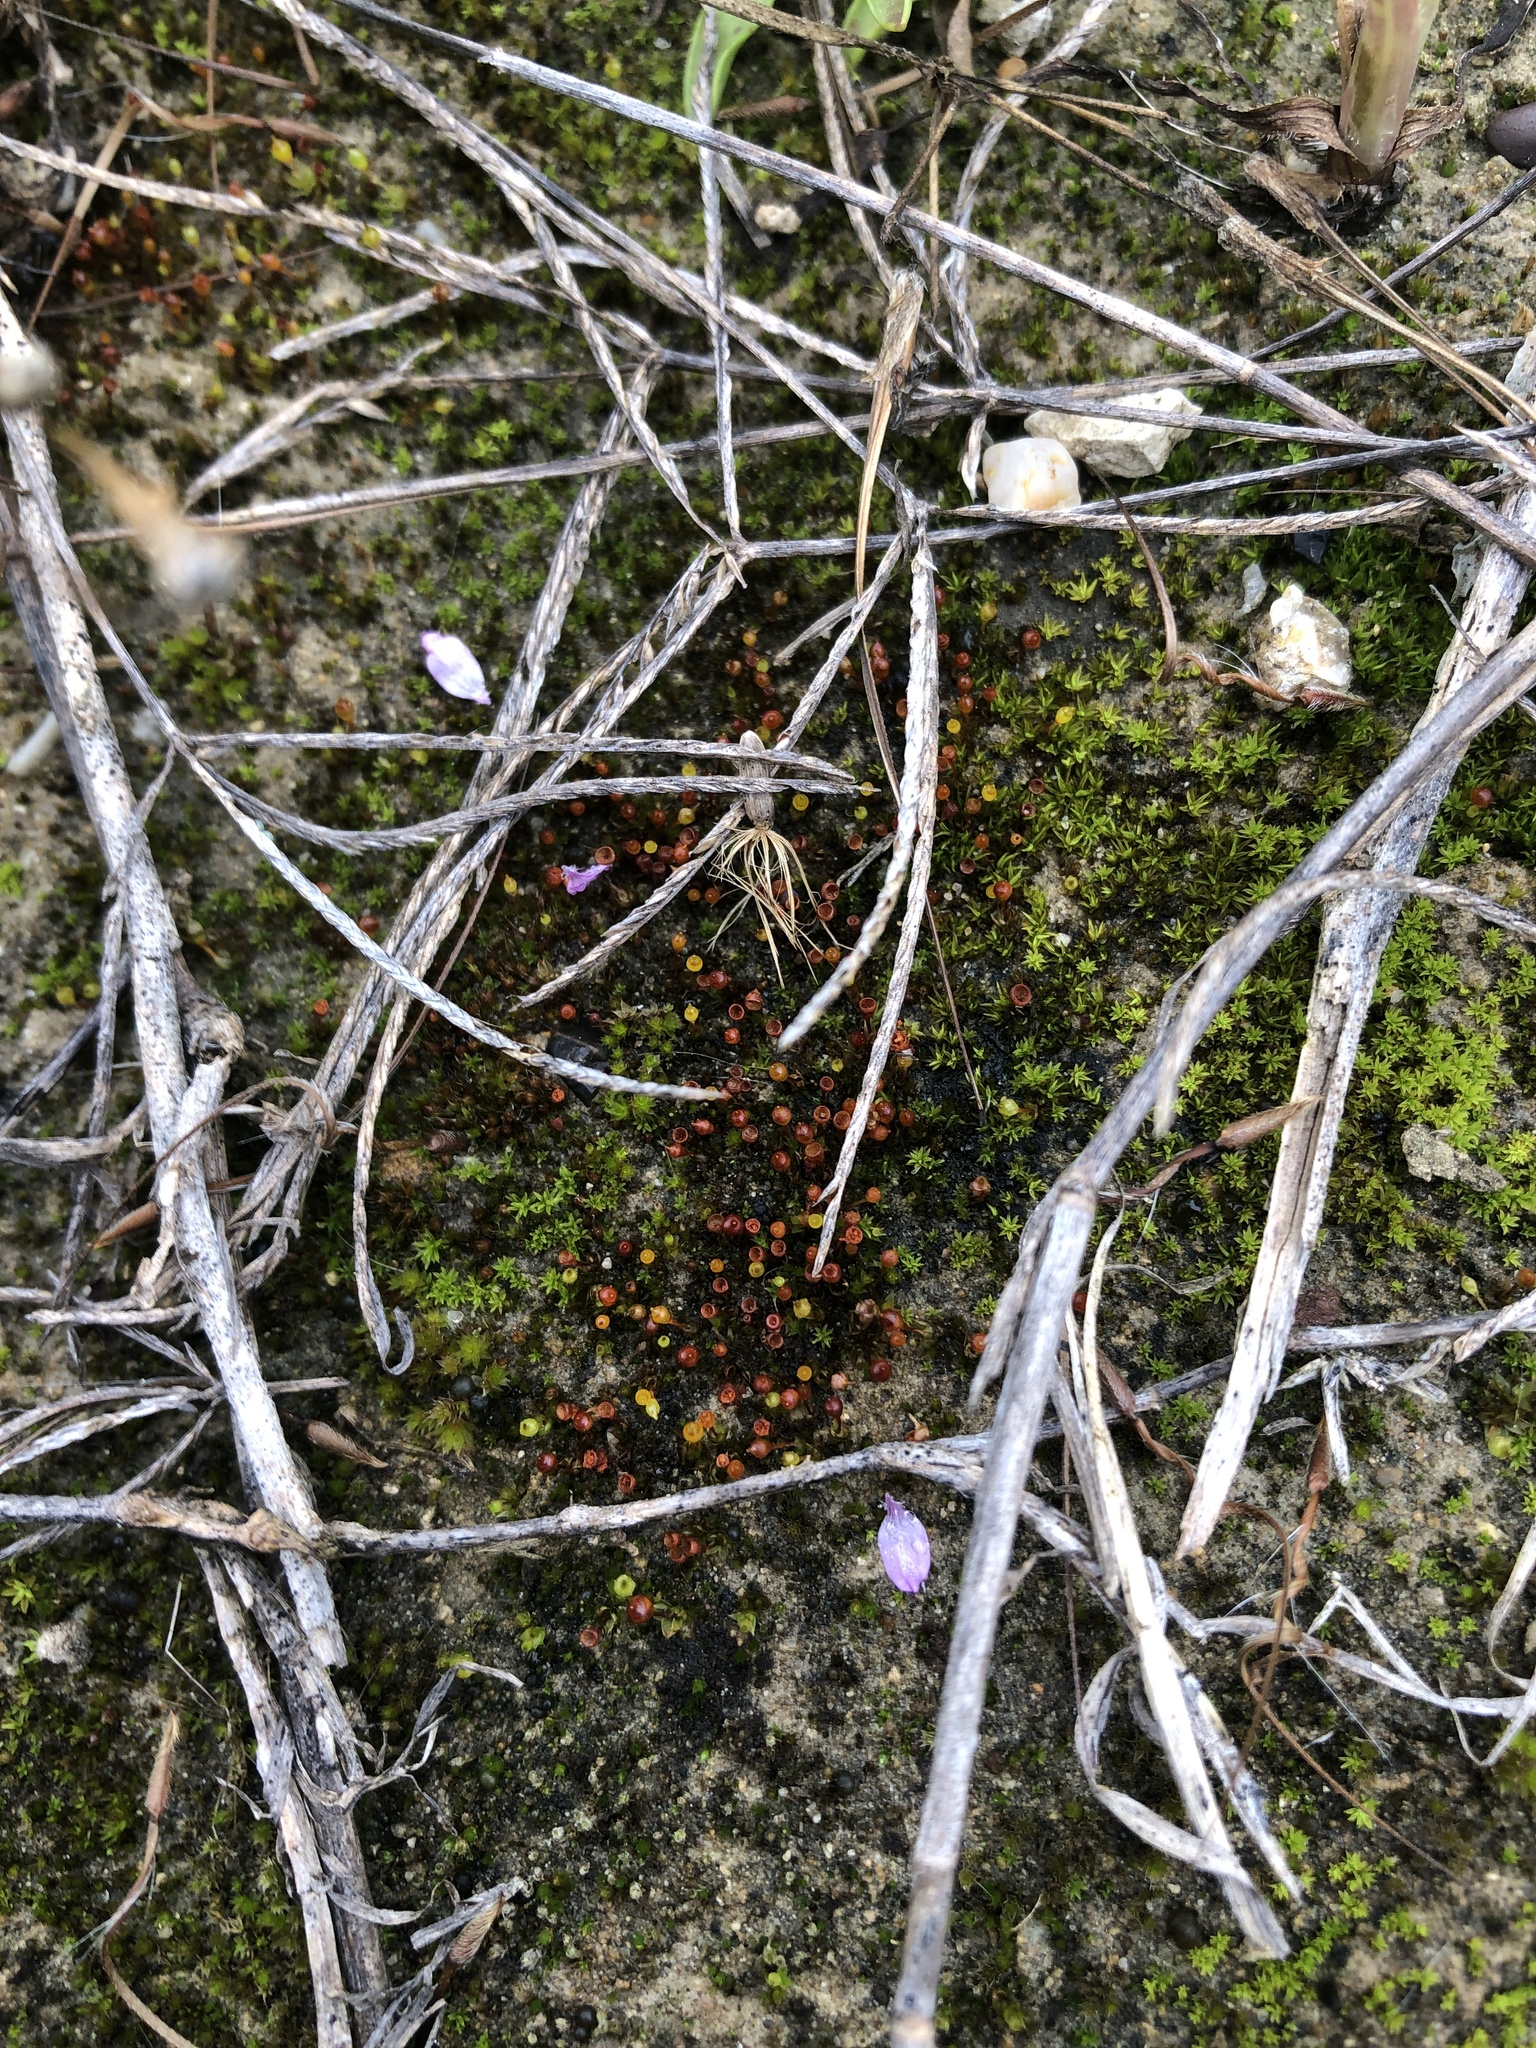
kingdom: Plantae
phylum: Bryophyta
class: Bryopsida
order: Funariales
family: Funariaceae
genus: Physcomitrium
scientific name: Physcomitrium pyriforme
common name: Common bladder-moss
